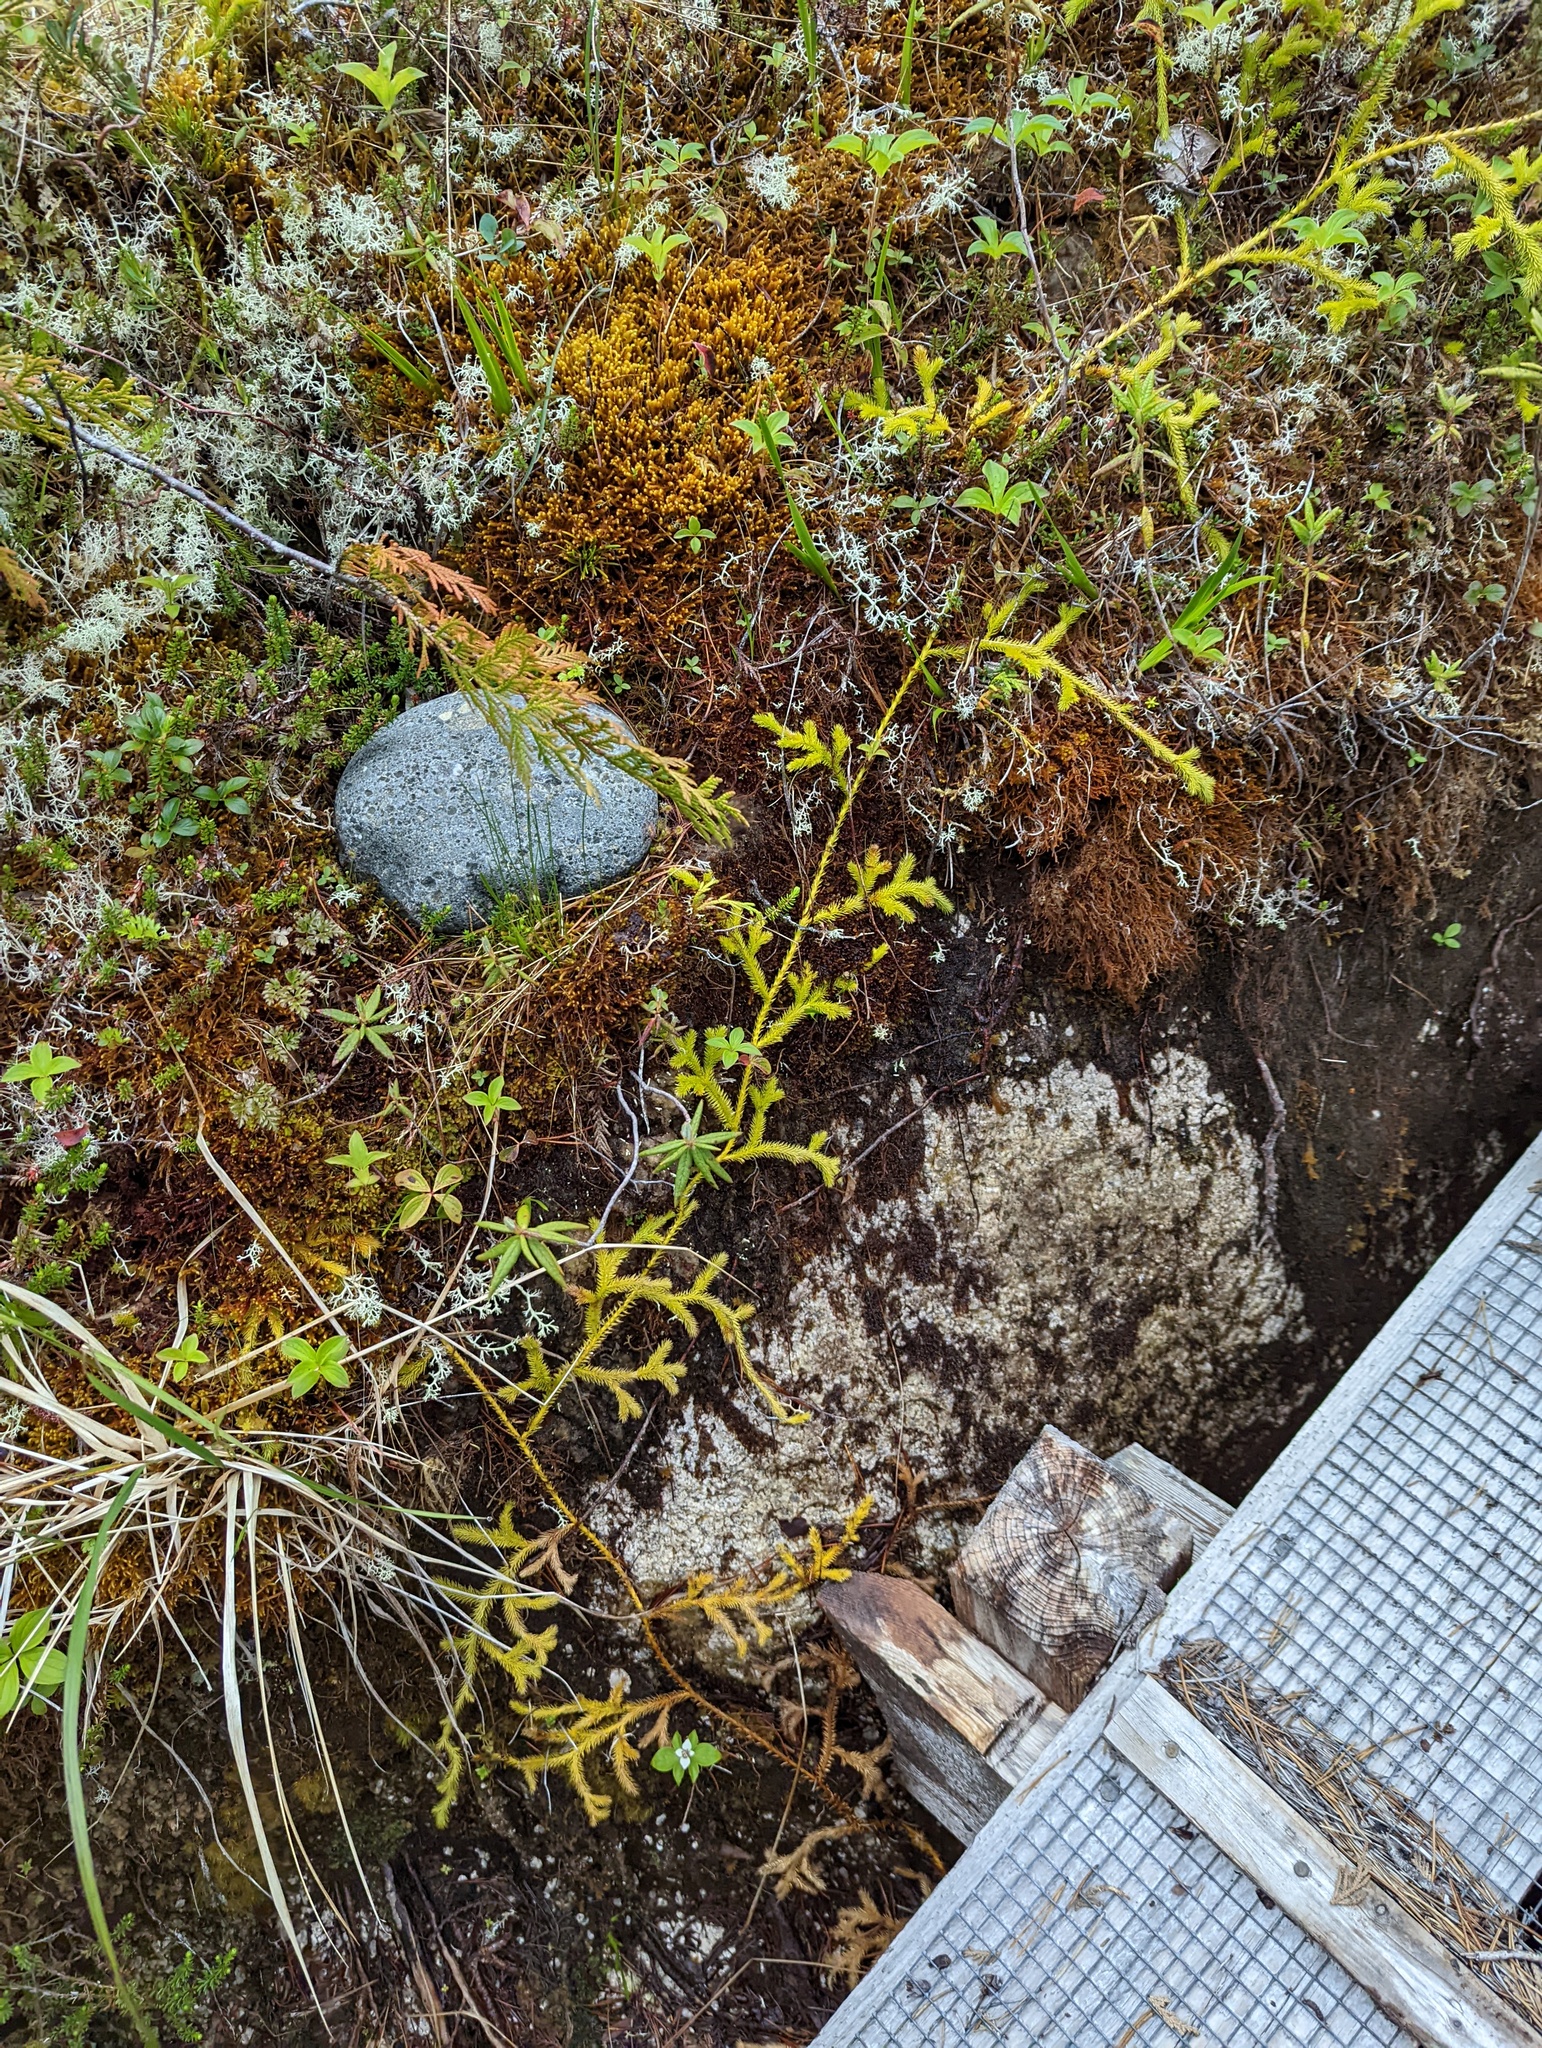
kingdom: Plantae
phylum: Tracheophyta
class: Lycopodiopsida
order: Lycopodiales
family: Lycopodiaceae
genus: Lycopodium
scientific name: Lycopodium clavatum
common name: Stag's-horn clubmoss
